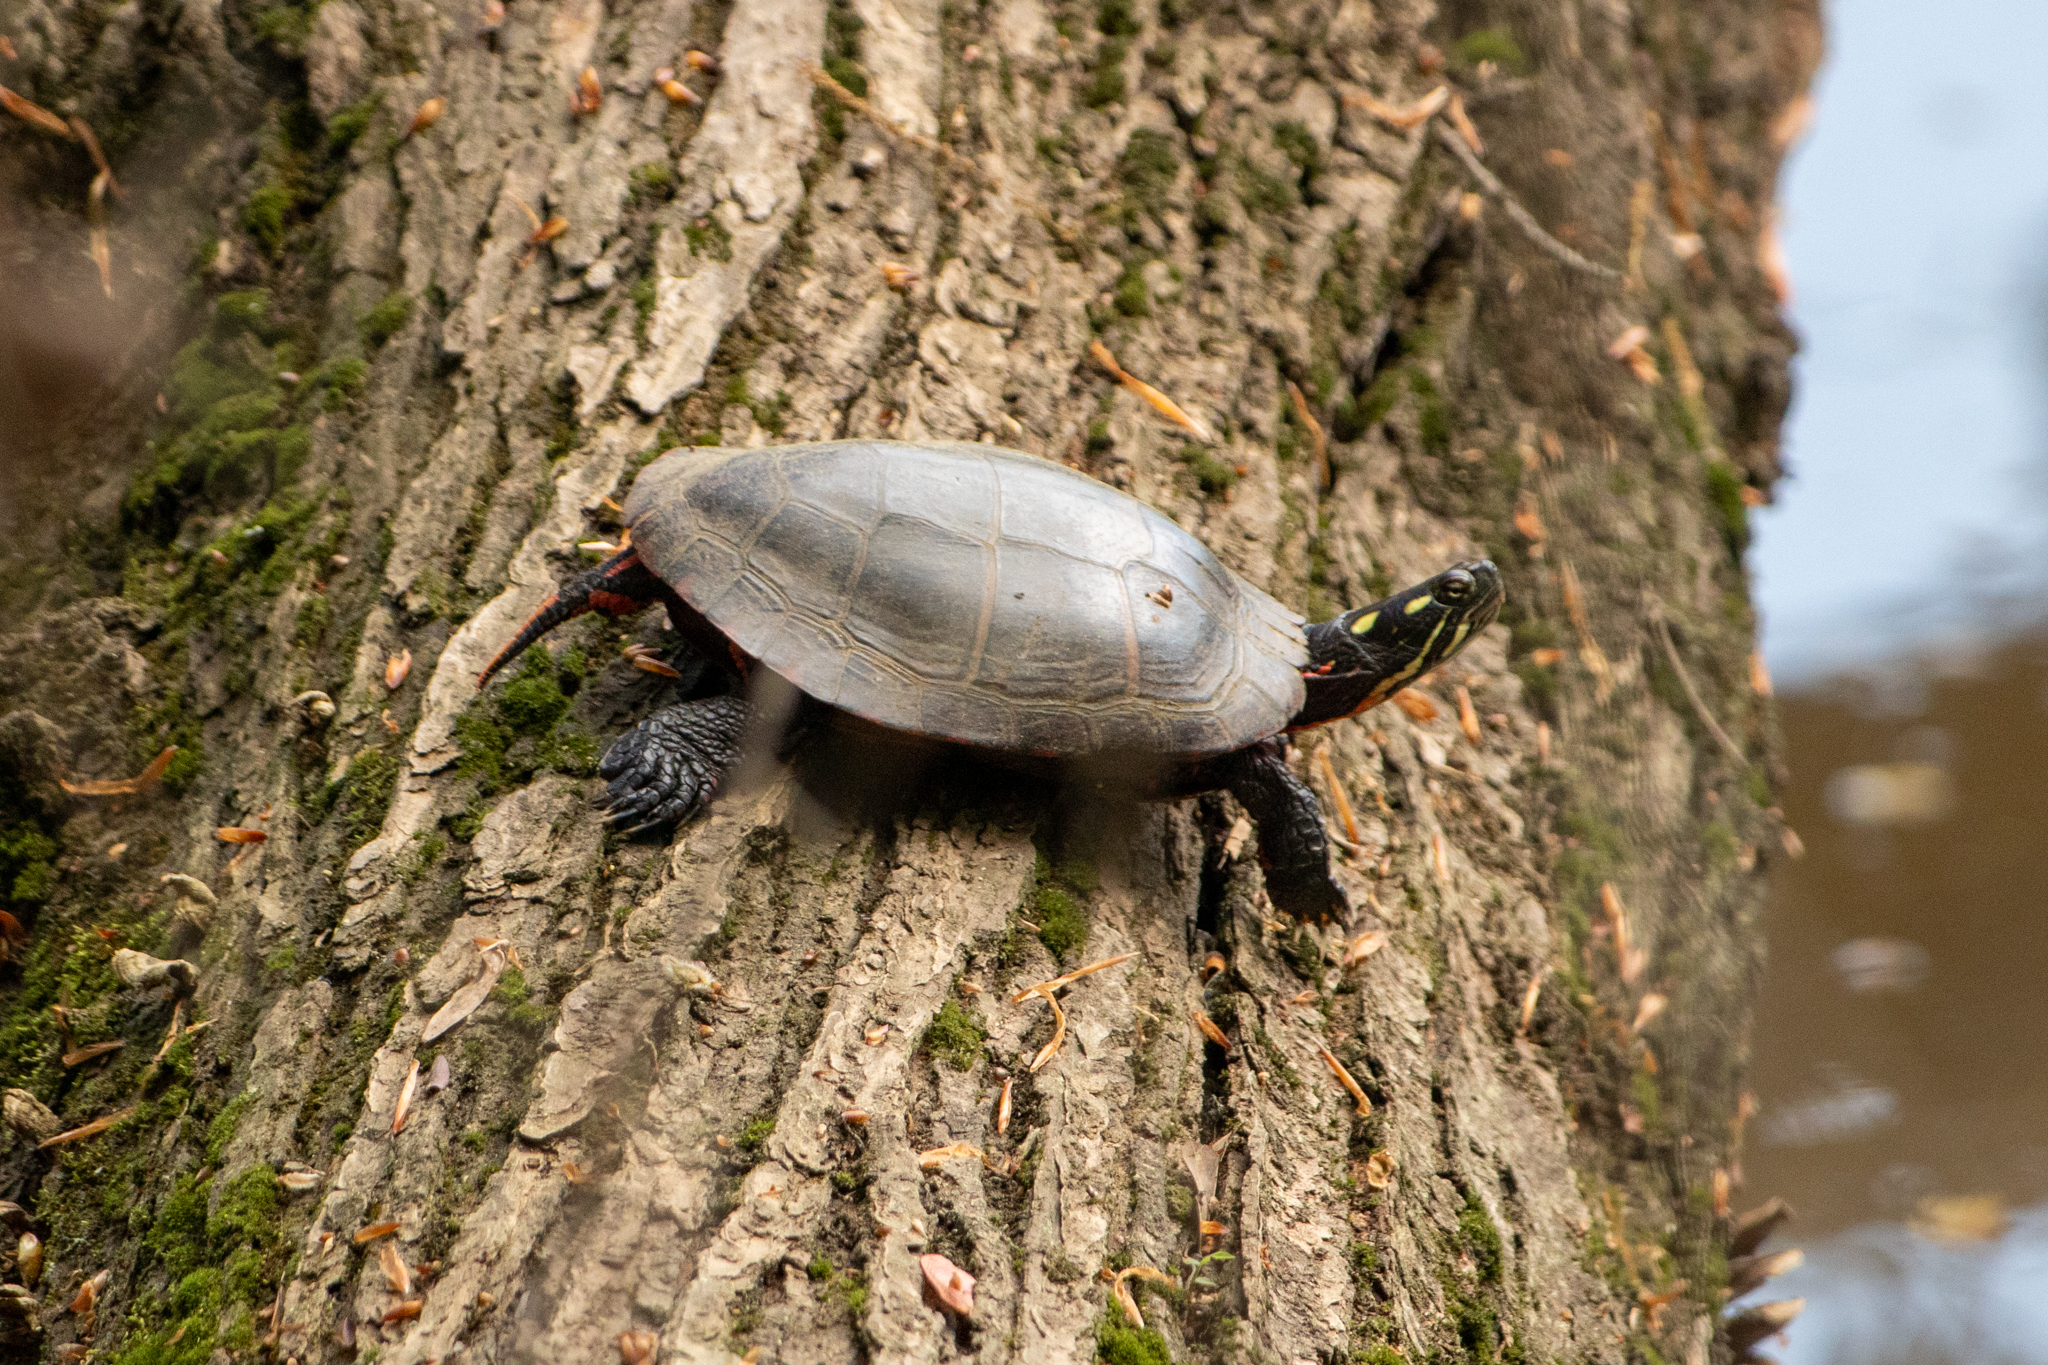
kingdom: Animalia
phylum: Chordata
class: Testudines
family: Emydidae
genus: Chrysemys
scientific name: Chrysemys picta
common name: Painted turtle
